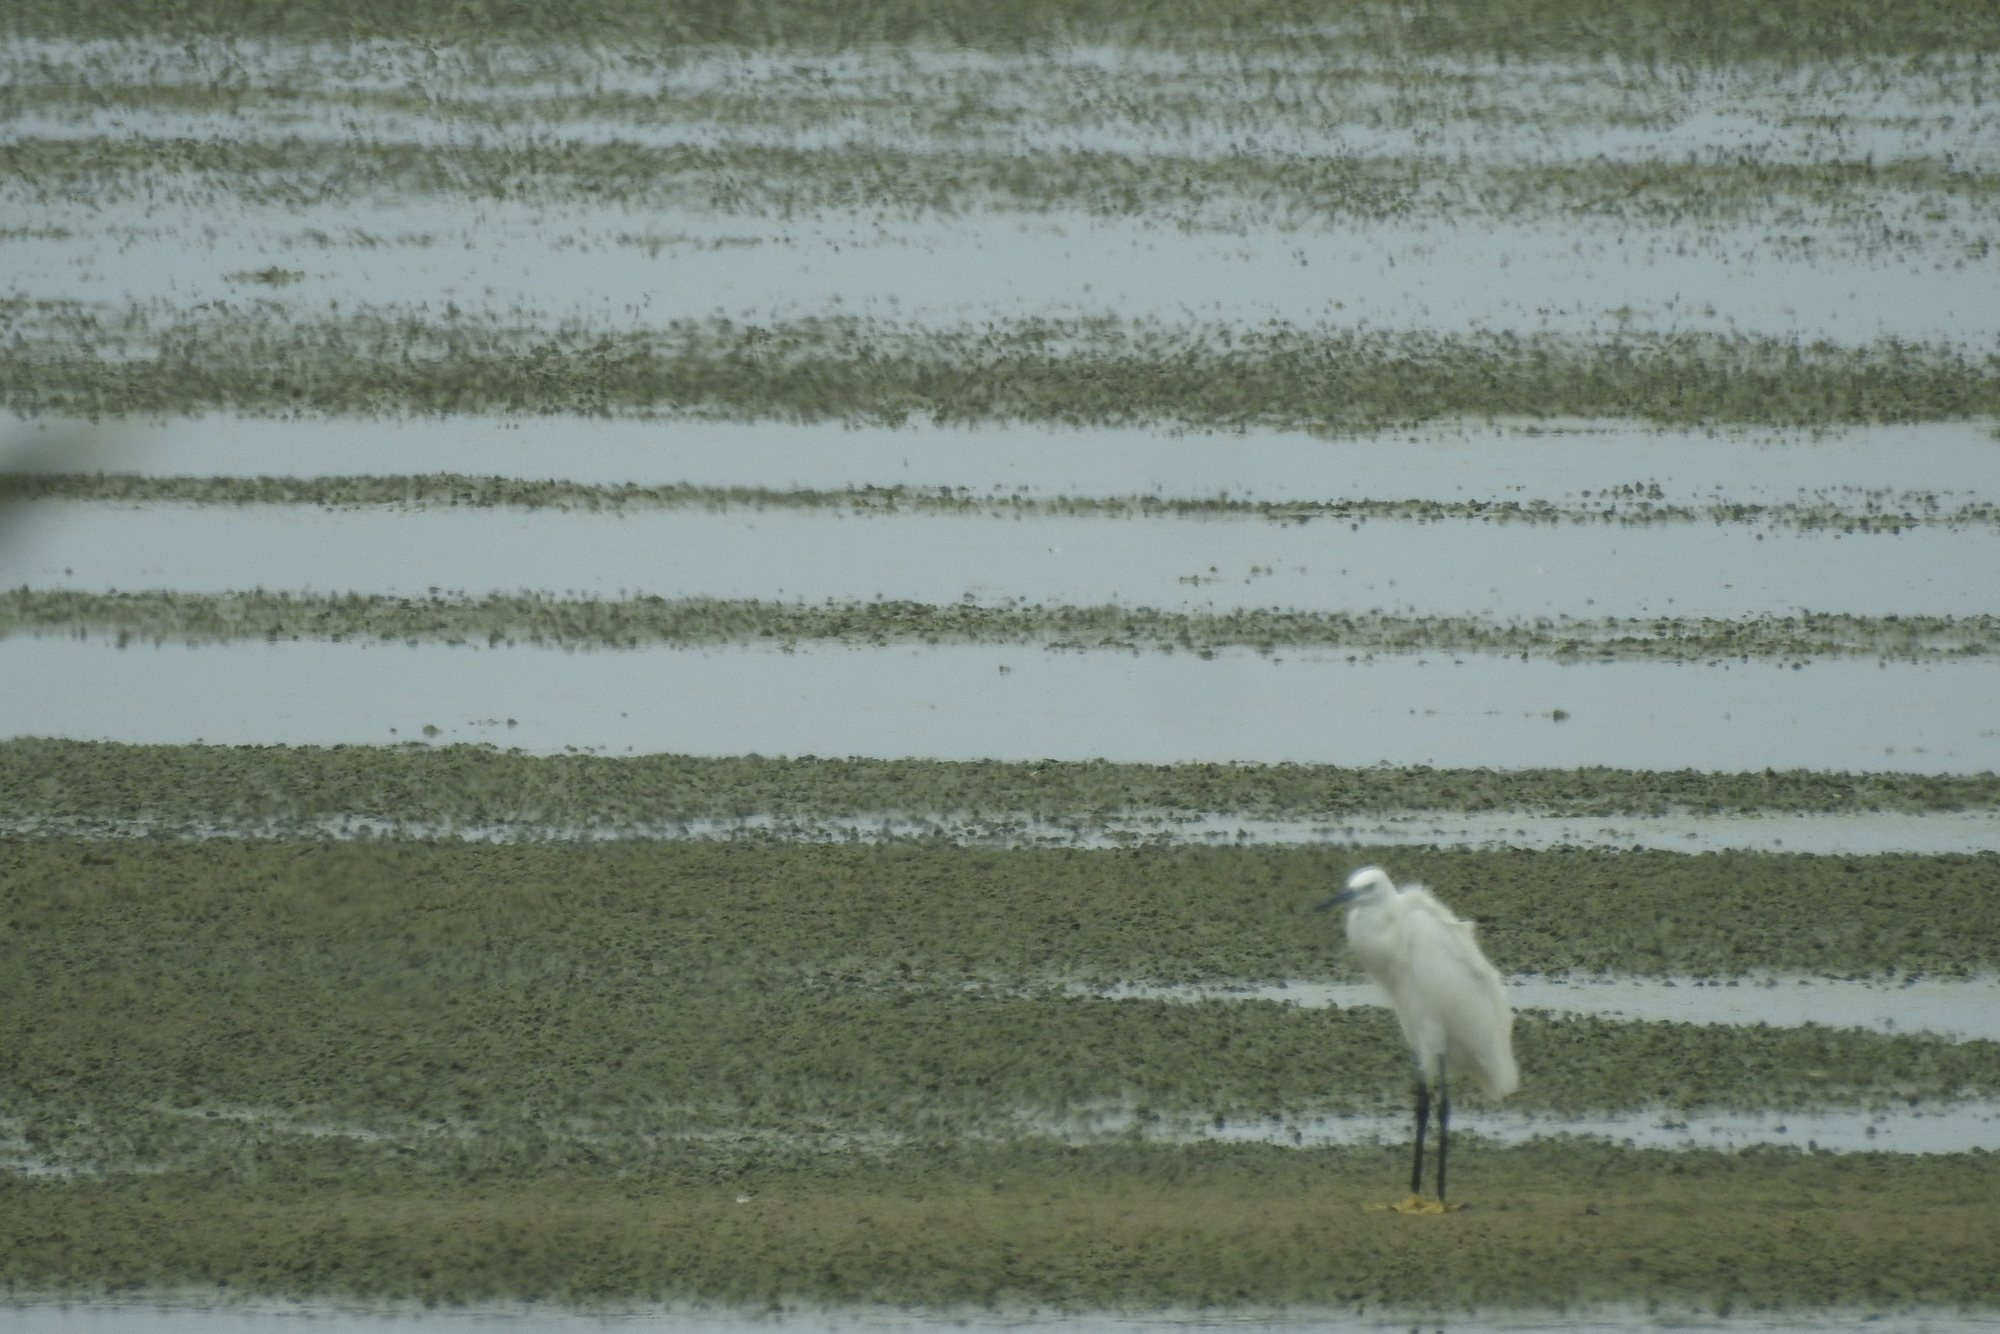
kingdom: Animalia
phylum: Chordata
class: Aves
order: Pelecaniformes
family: Ardeidae
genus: Egretta
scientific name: Egretta garzetta
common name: Little egret
